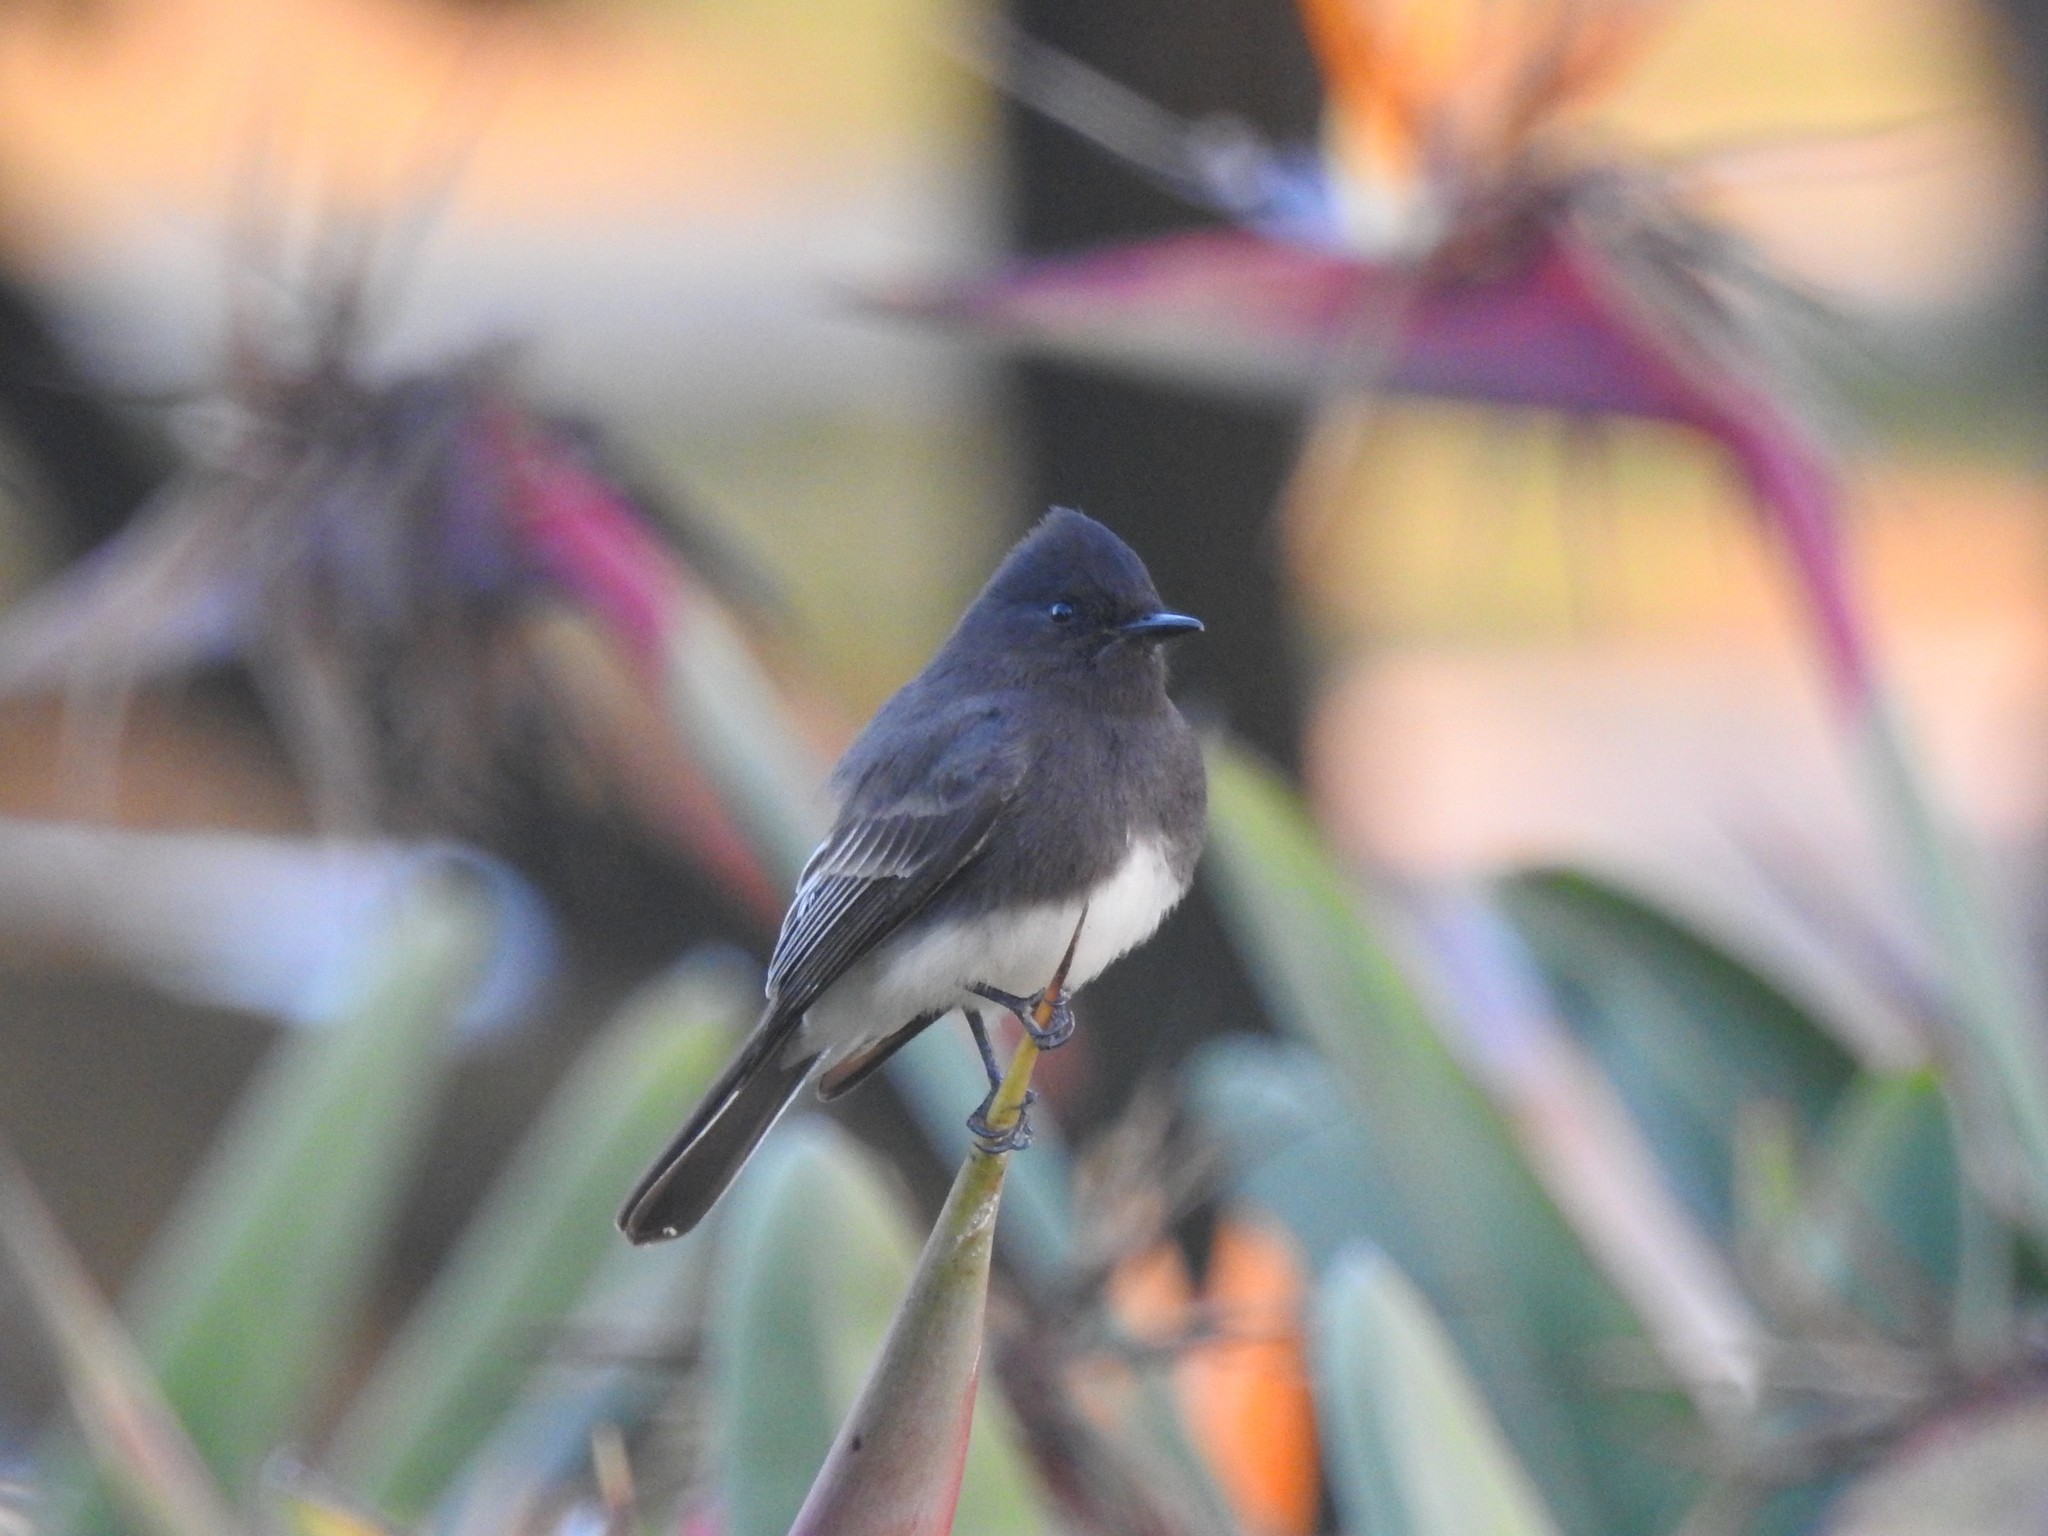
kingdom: Animalia
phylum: Chordata
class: Aves
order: Passeriformes
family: Tyrannidae
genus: Sayornis
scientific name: Sayornis nigricans
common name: Black phoebe
